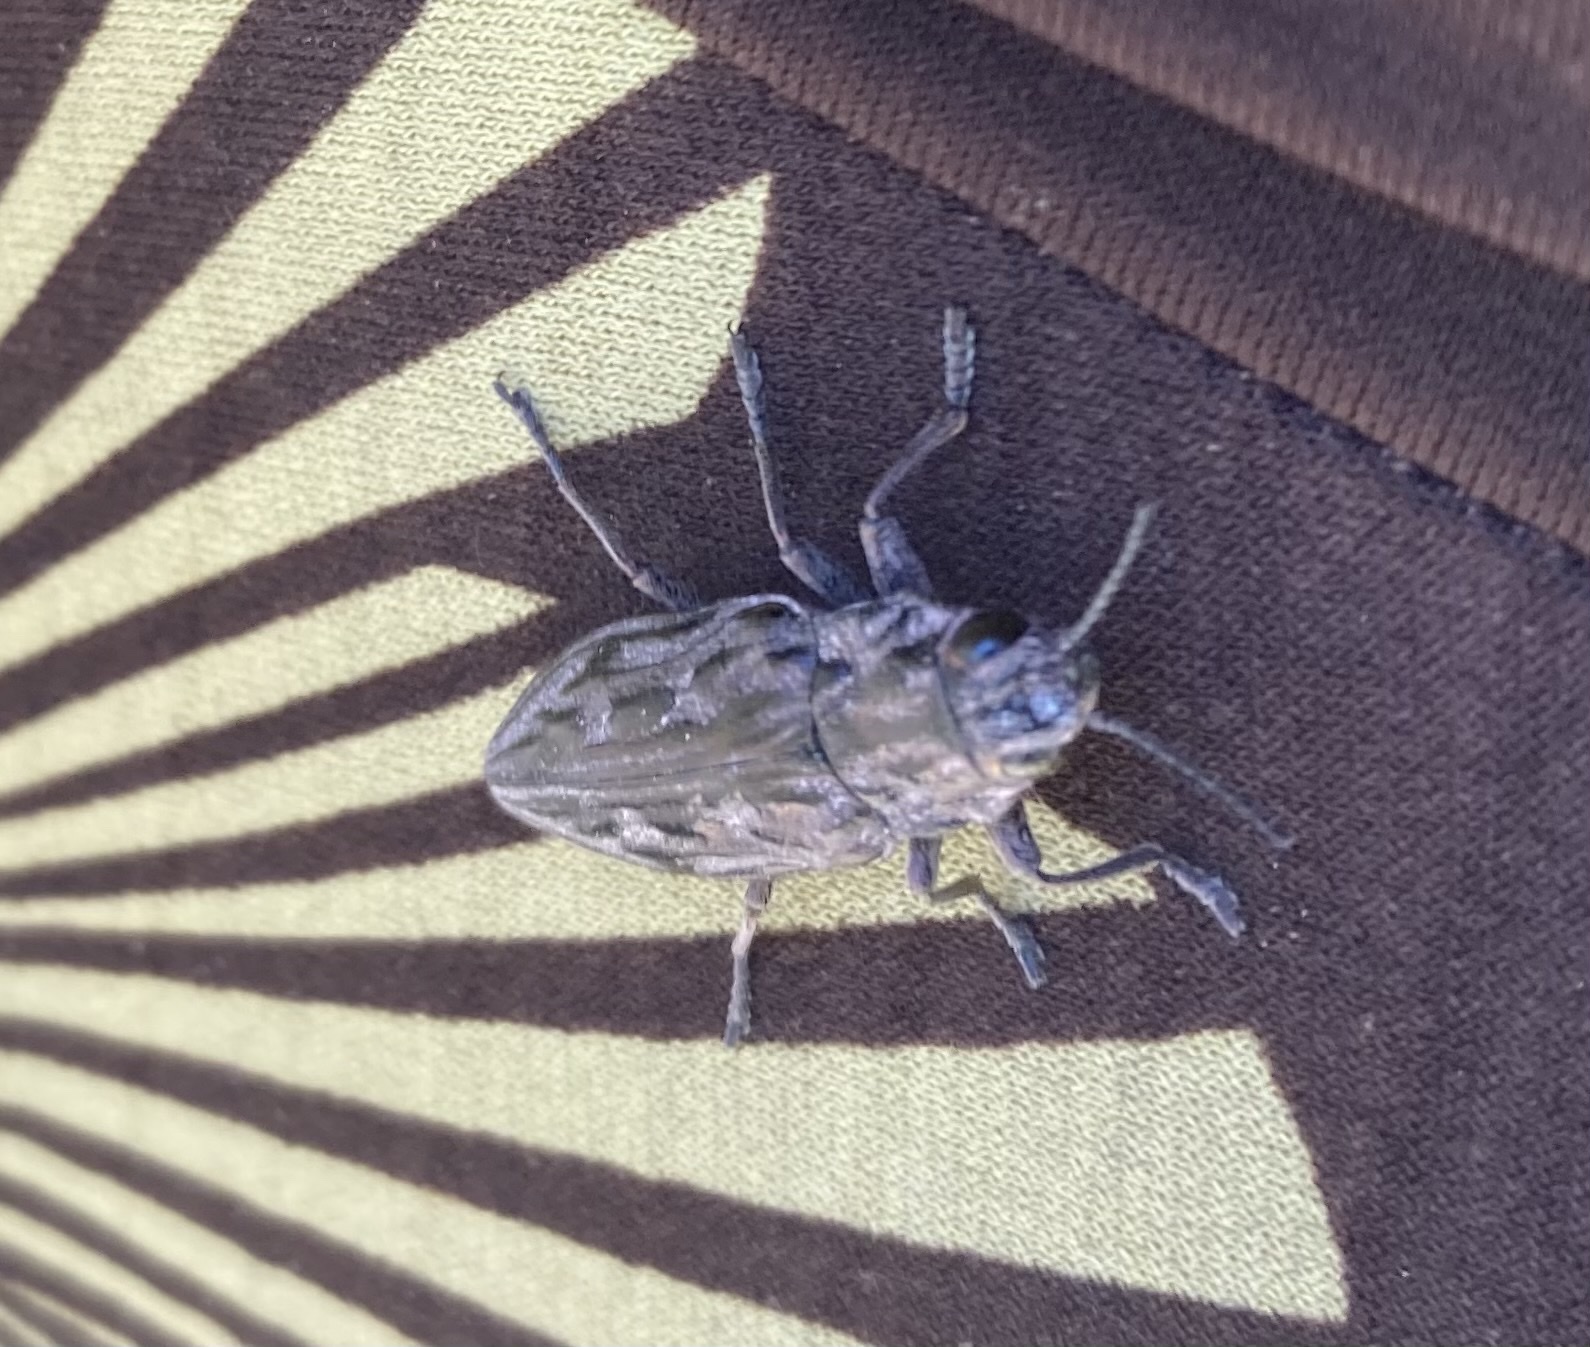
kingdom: Animalia
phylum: Arthropoda
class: Insecta
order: Coleoptera
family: Buprestidae
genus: Chalcophora
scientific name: Chalcophora angulicollis
